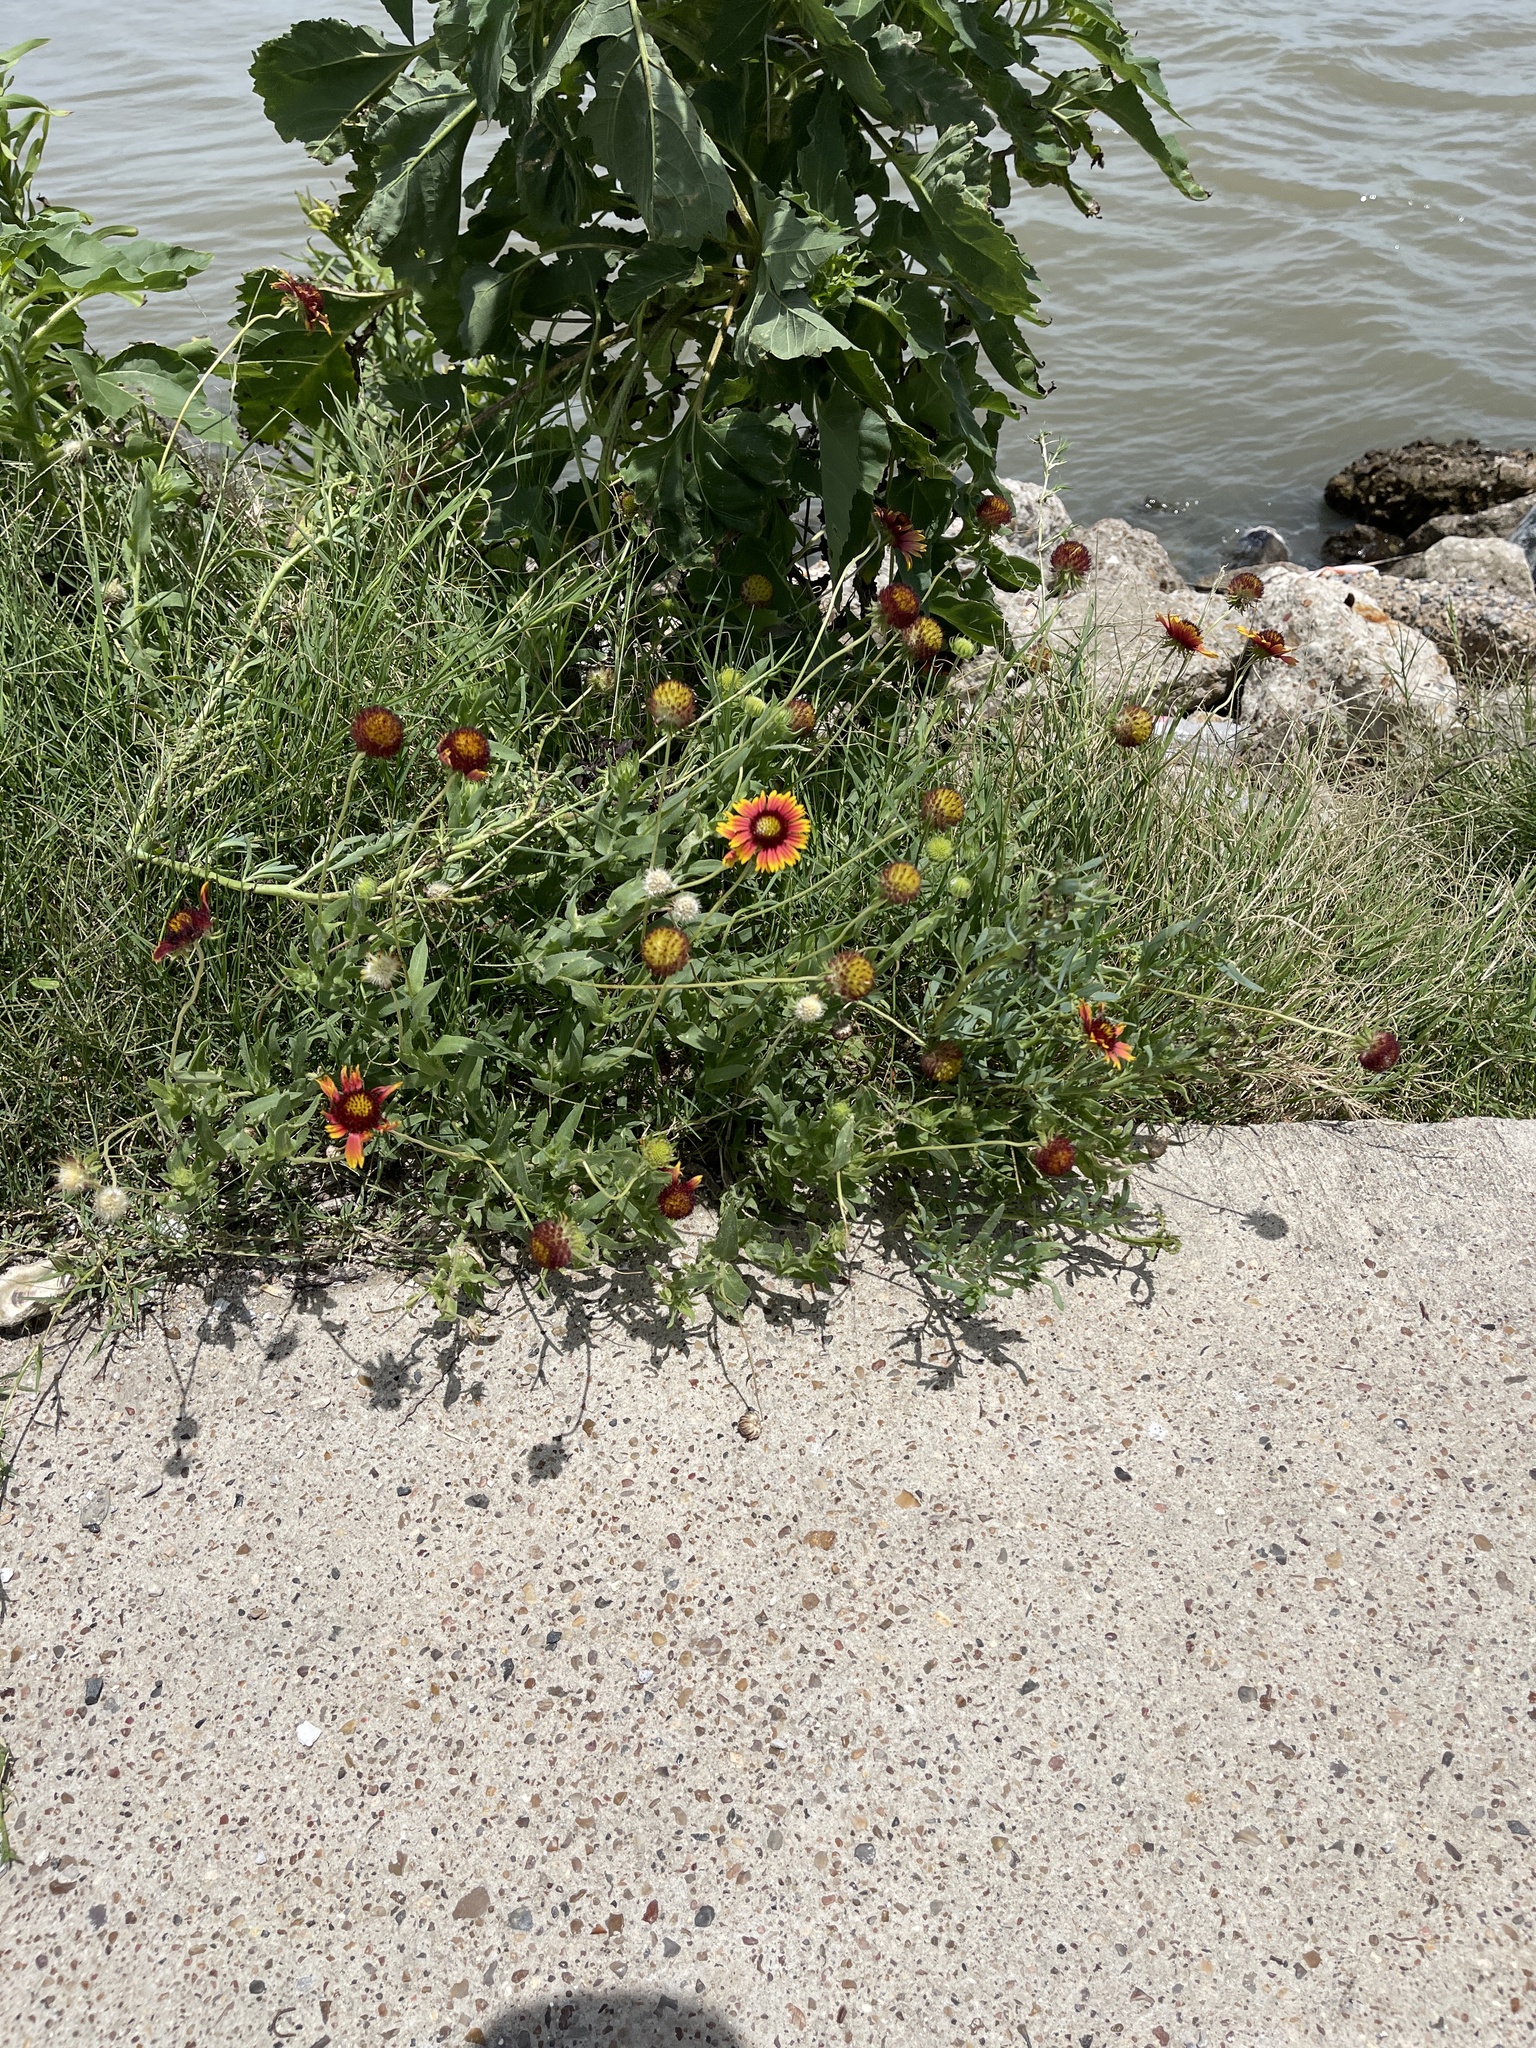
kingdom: Plantae
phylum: Tracheophyta
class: Magnoliopsida
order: Asterales
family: Asteraceae
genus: Gaillardia
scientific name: Gaillardia pulchella
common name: Firewheel
